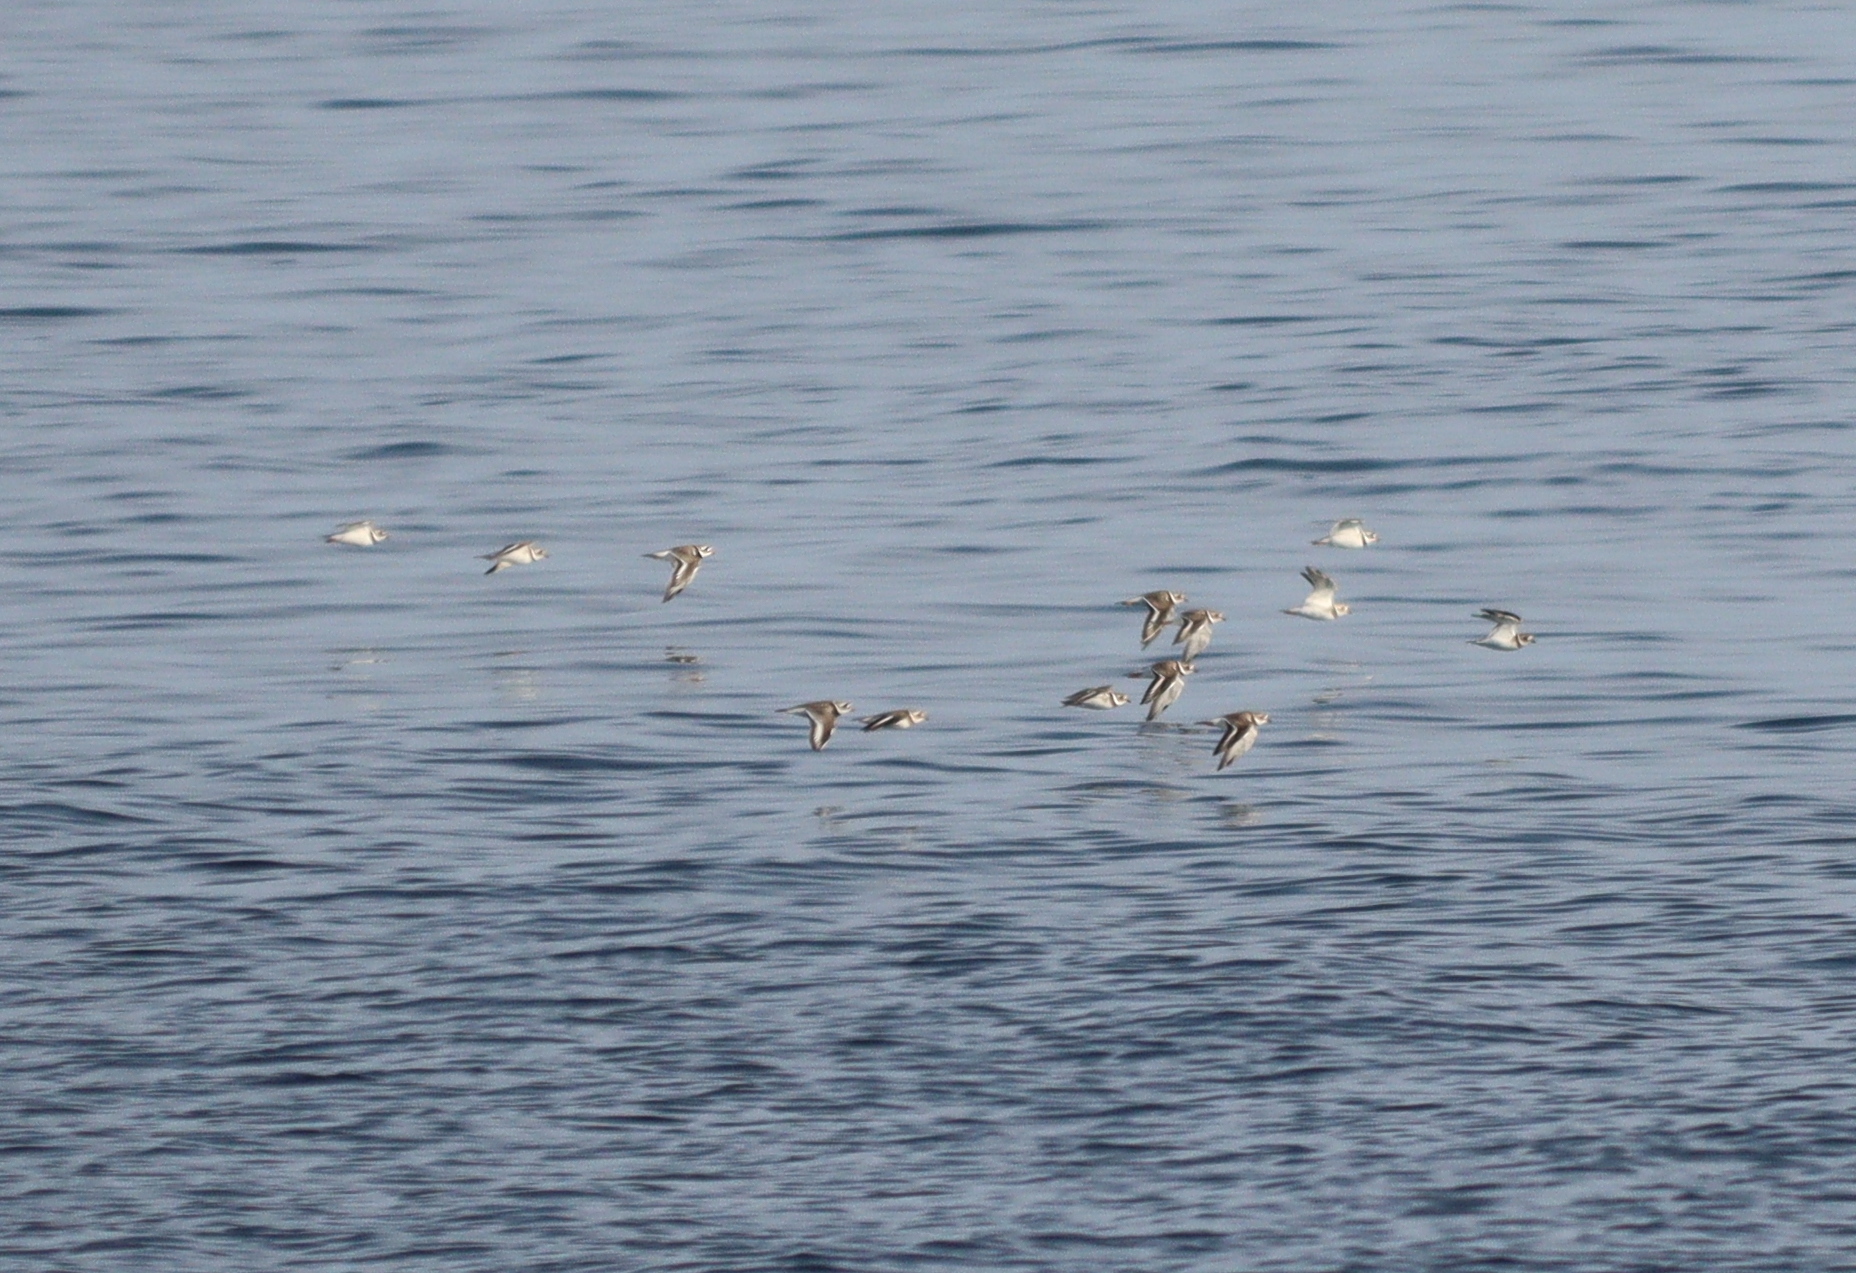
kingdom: Animalia
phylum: Chordata
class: Aves
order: Charadriiformes
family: Charadriidae
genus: Charadrius
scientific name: Charadrius hiaticula
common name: Common ringed plover
